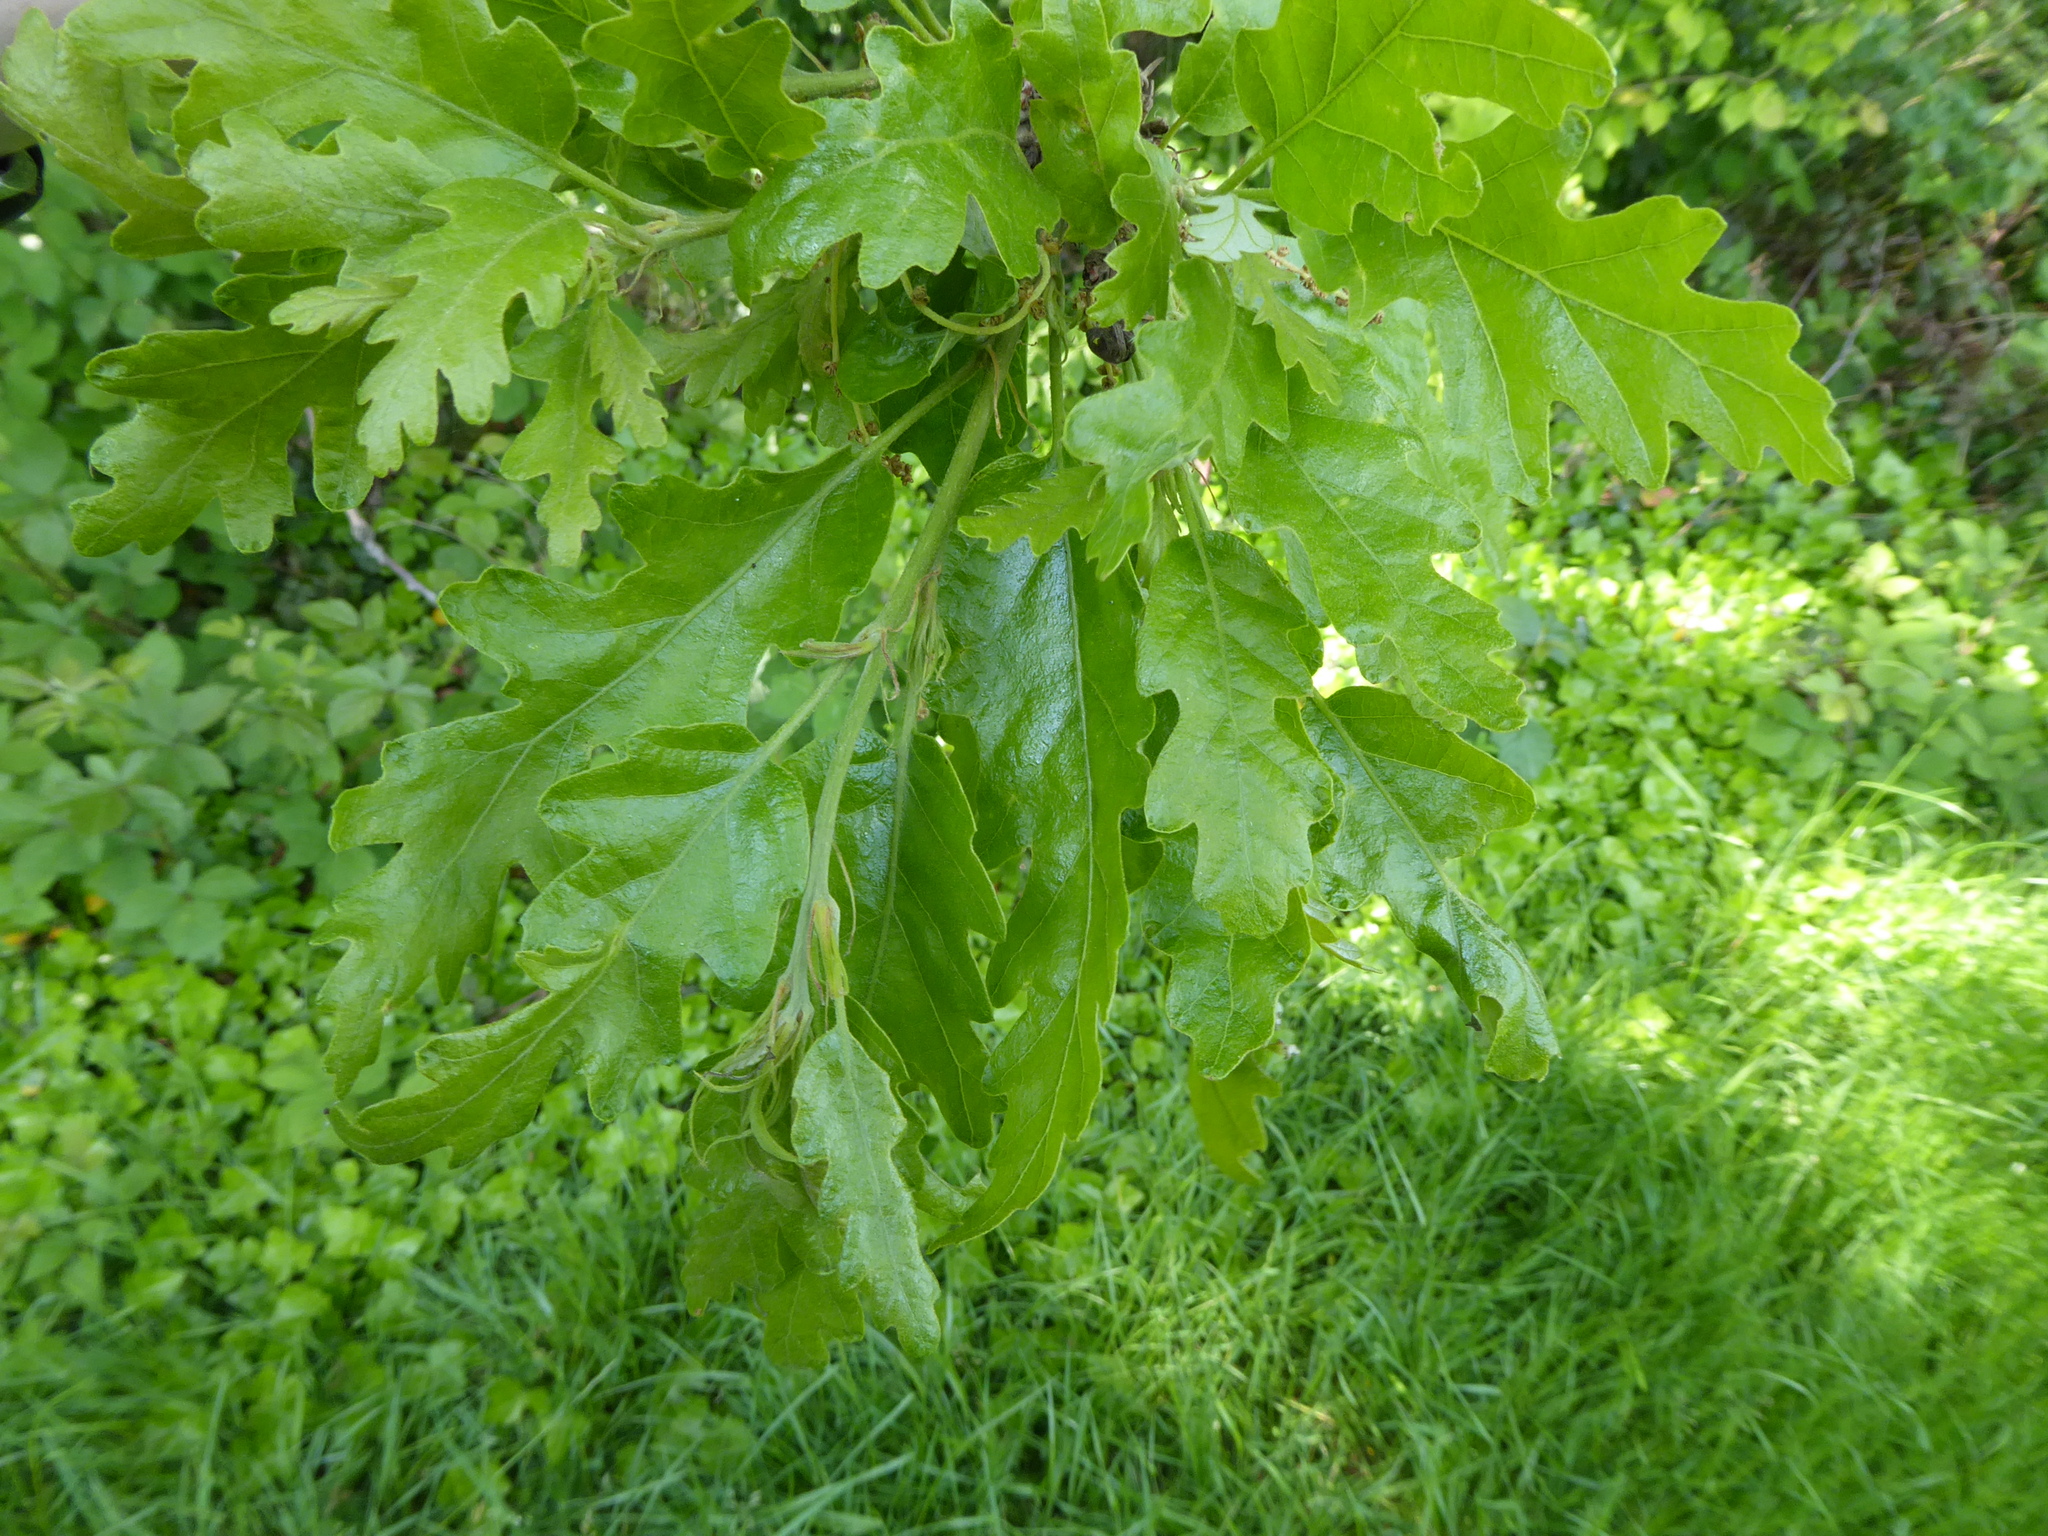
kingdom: Plantae
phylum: Tracheophyta
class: Magnoliopsida
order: Fagales
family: Fagaceae
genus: Quercus
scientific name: Quercus cerris
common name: Turkey oak
